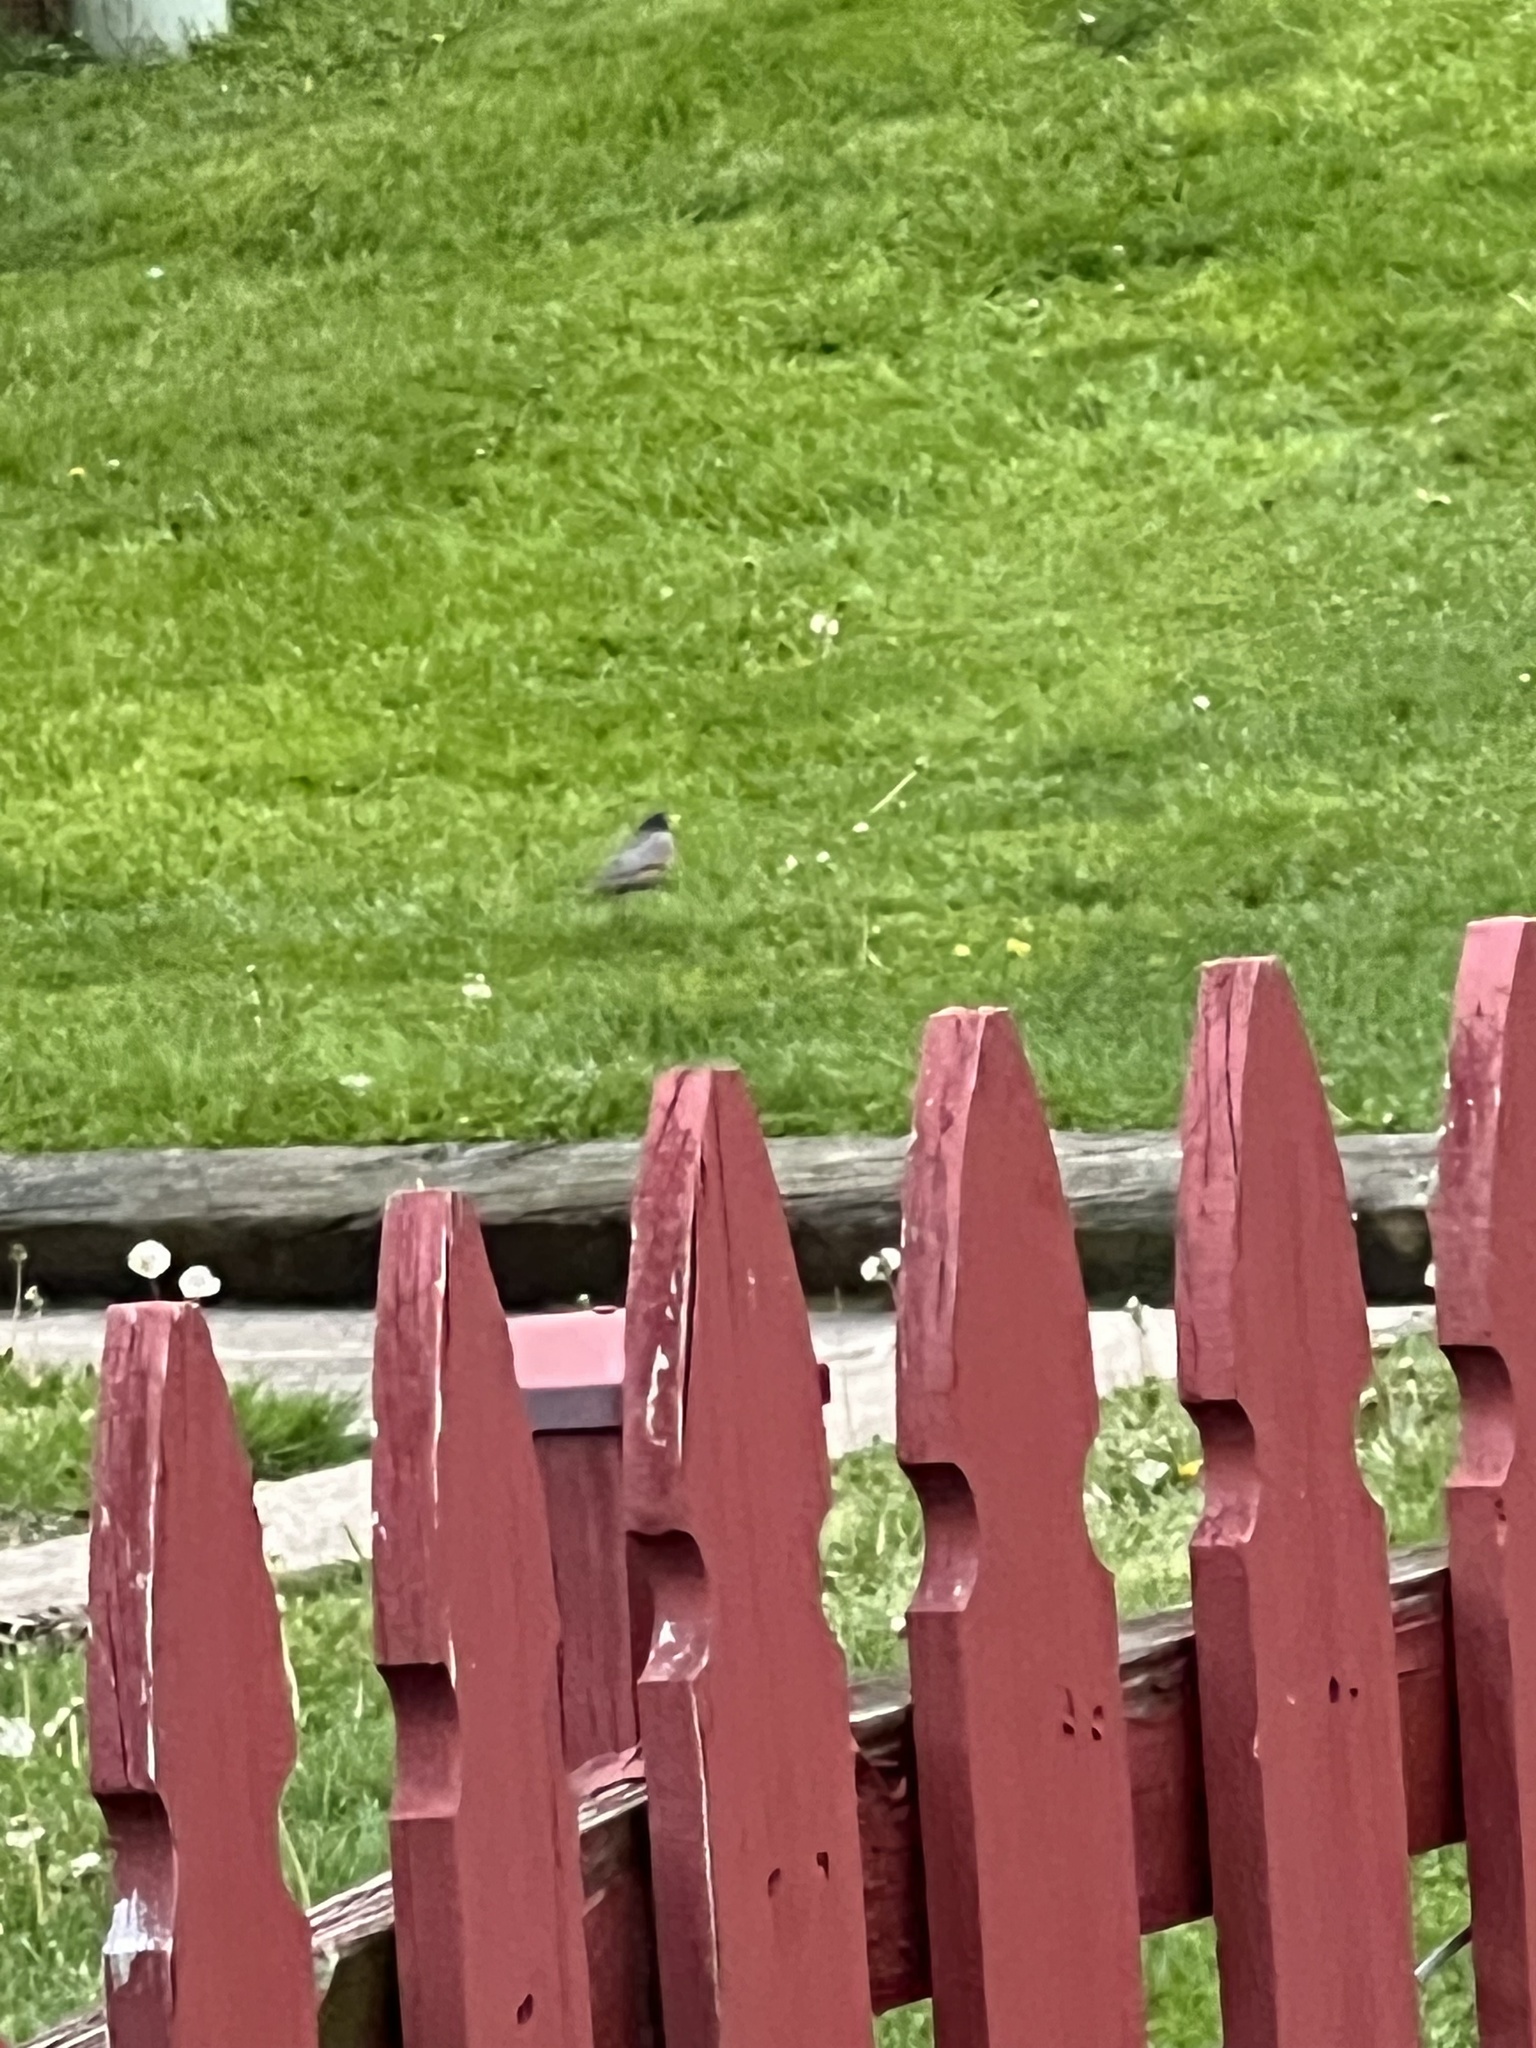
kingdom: Animalia
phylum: Chordata
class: Aves
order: Passeriformes
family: Turdidae
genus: Turdus
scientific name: Turdus migratorius
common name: American robin
